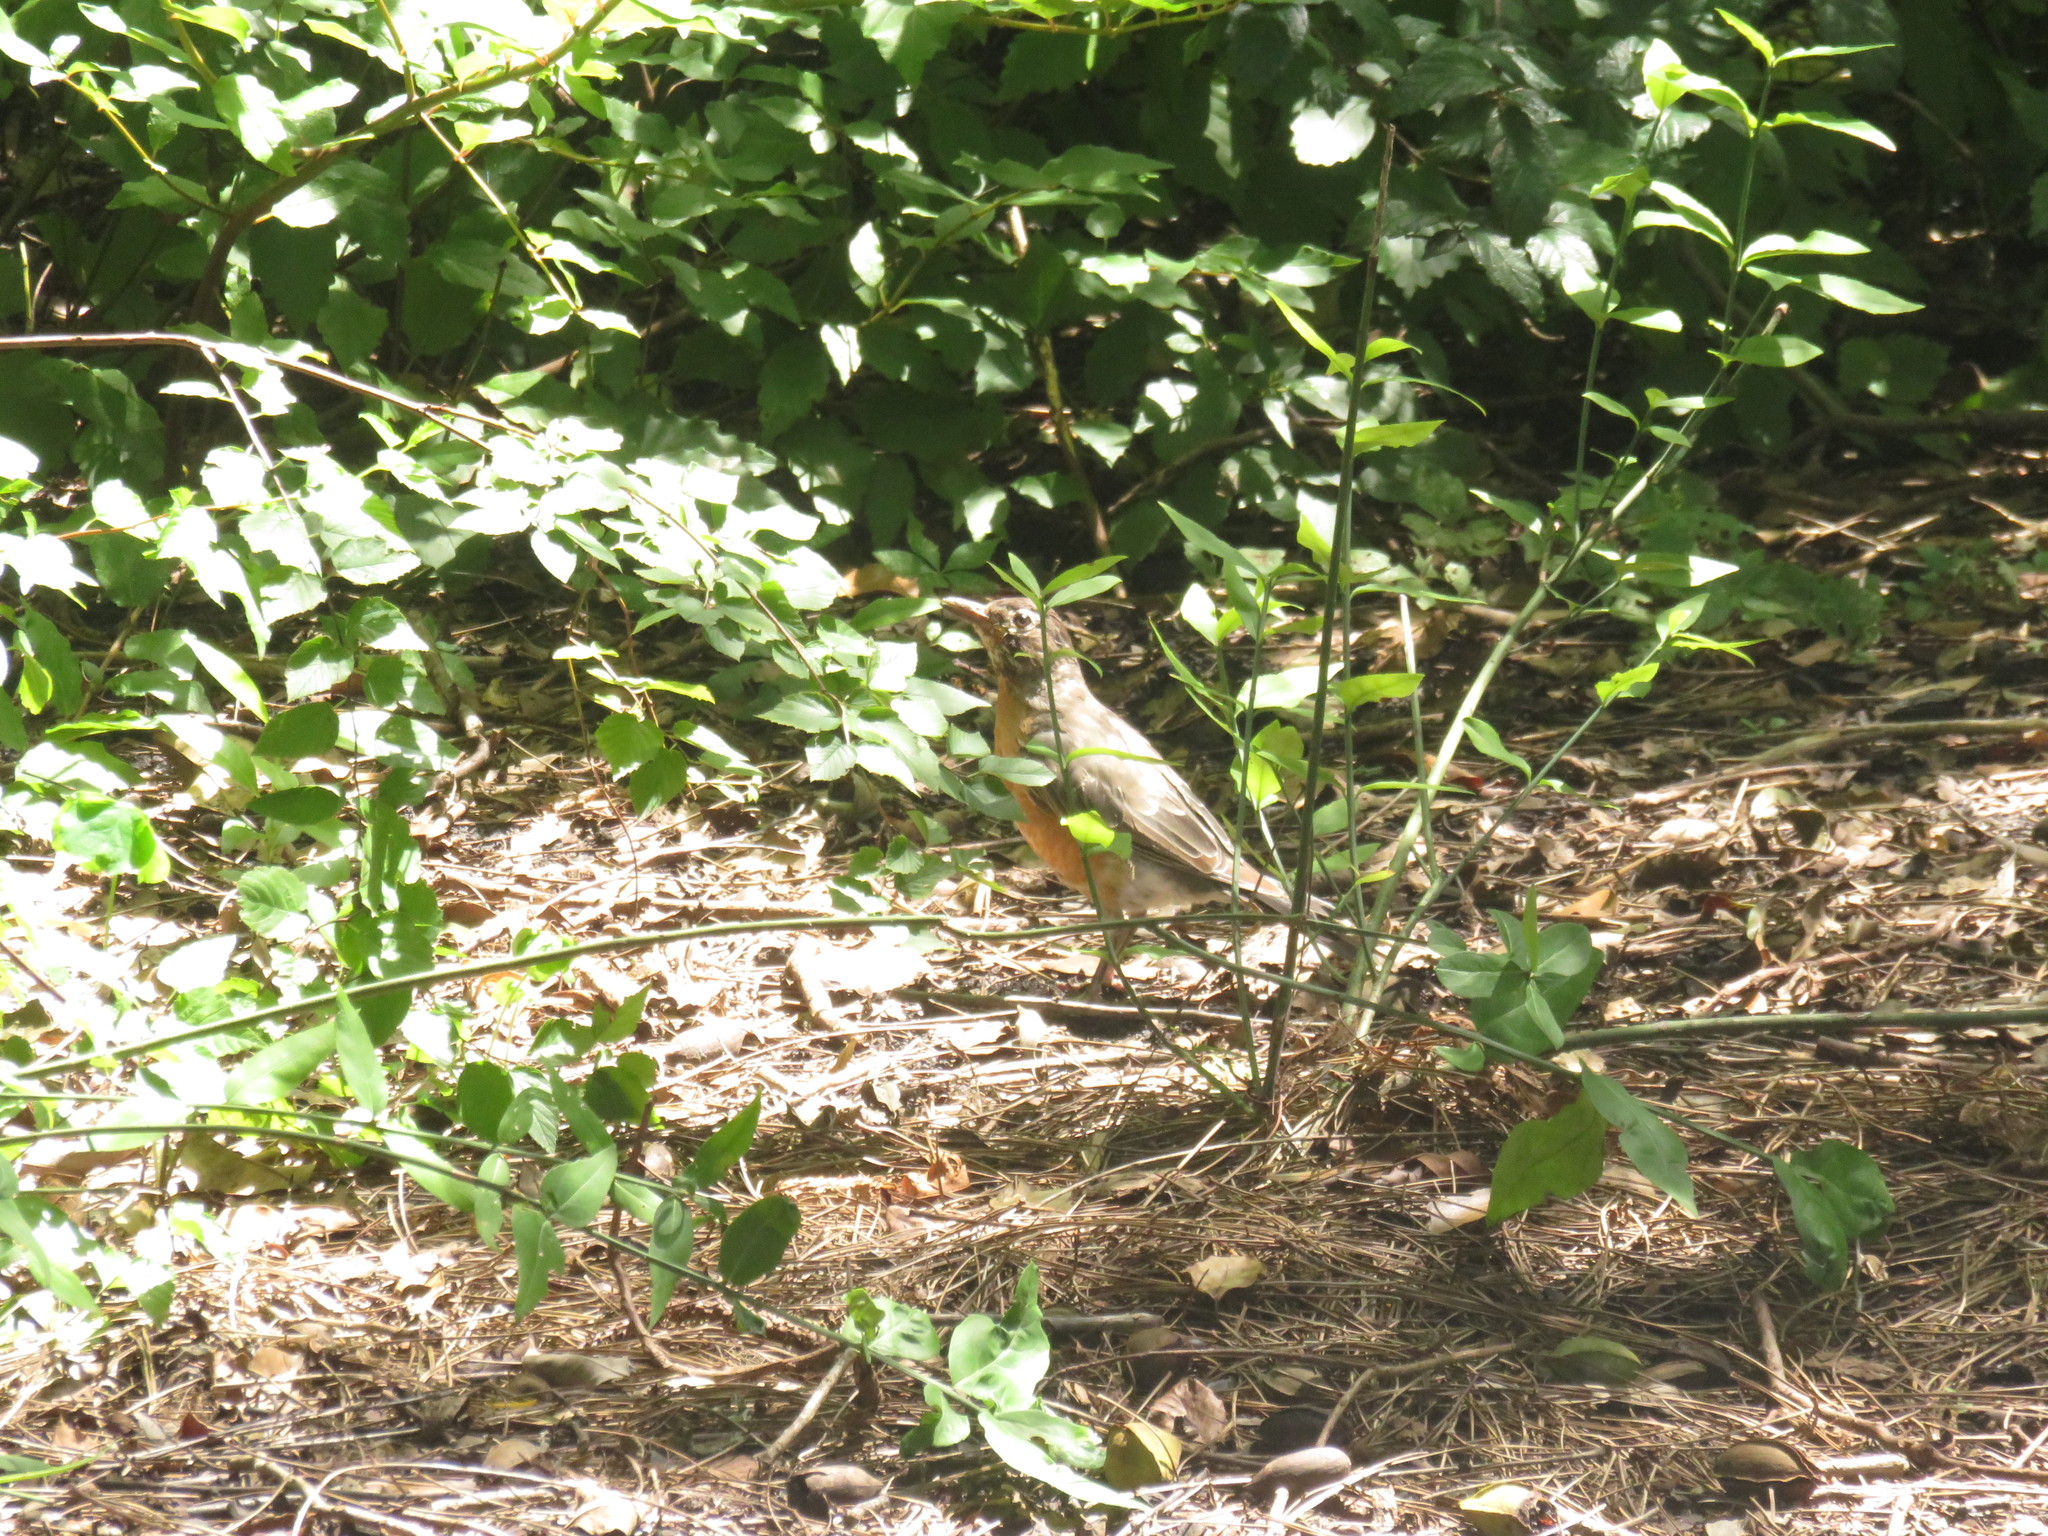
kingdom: Animalia
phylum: Chordata
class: Aves
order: Passeriformes
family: Turdidae
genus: Turdus
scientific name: Turdus migratorius
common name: American robin
